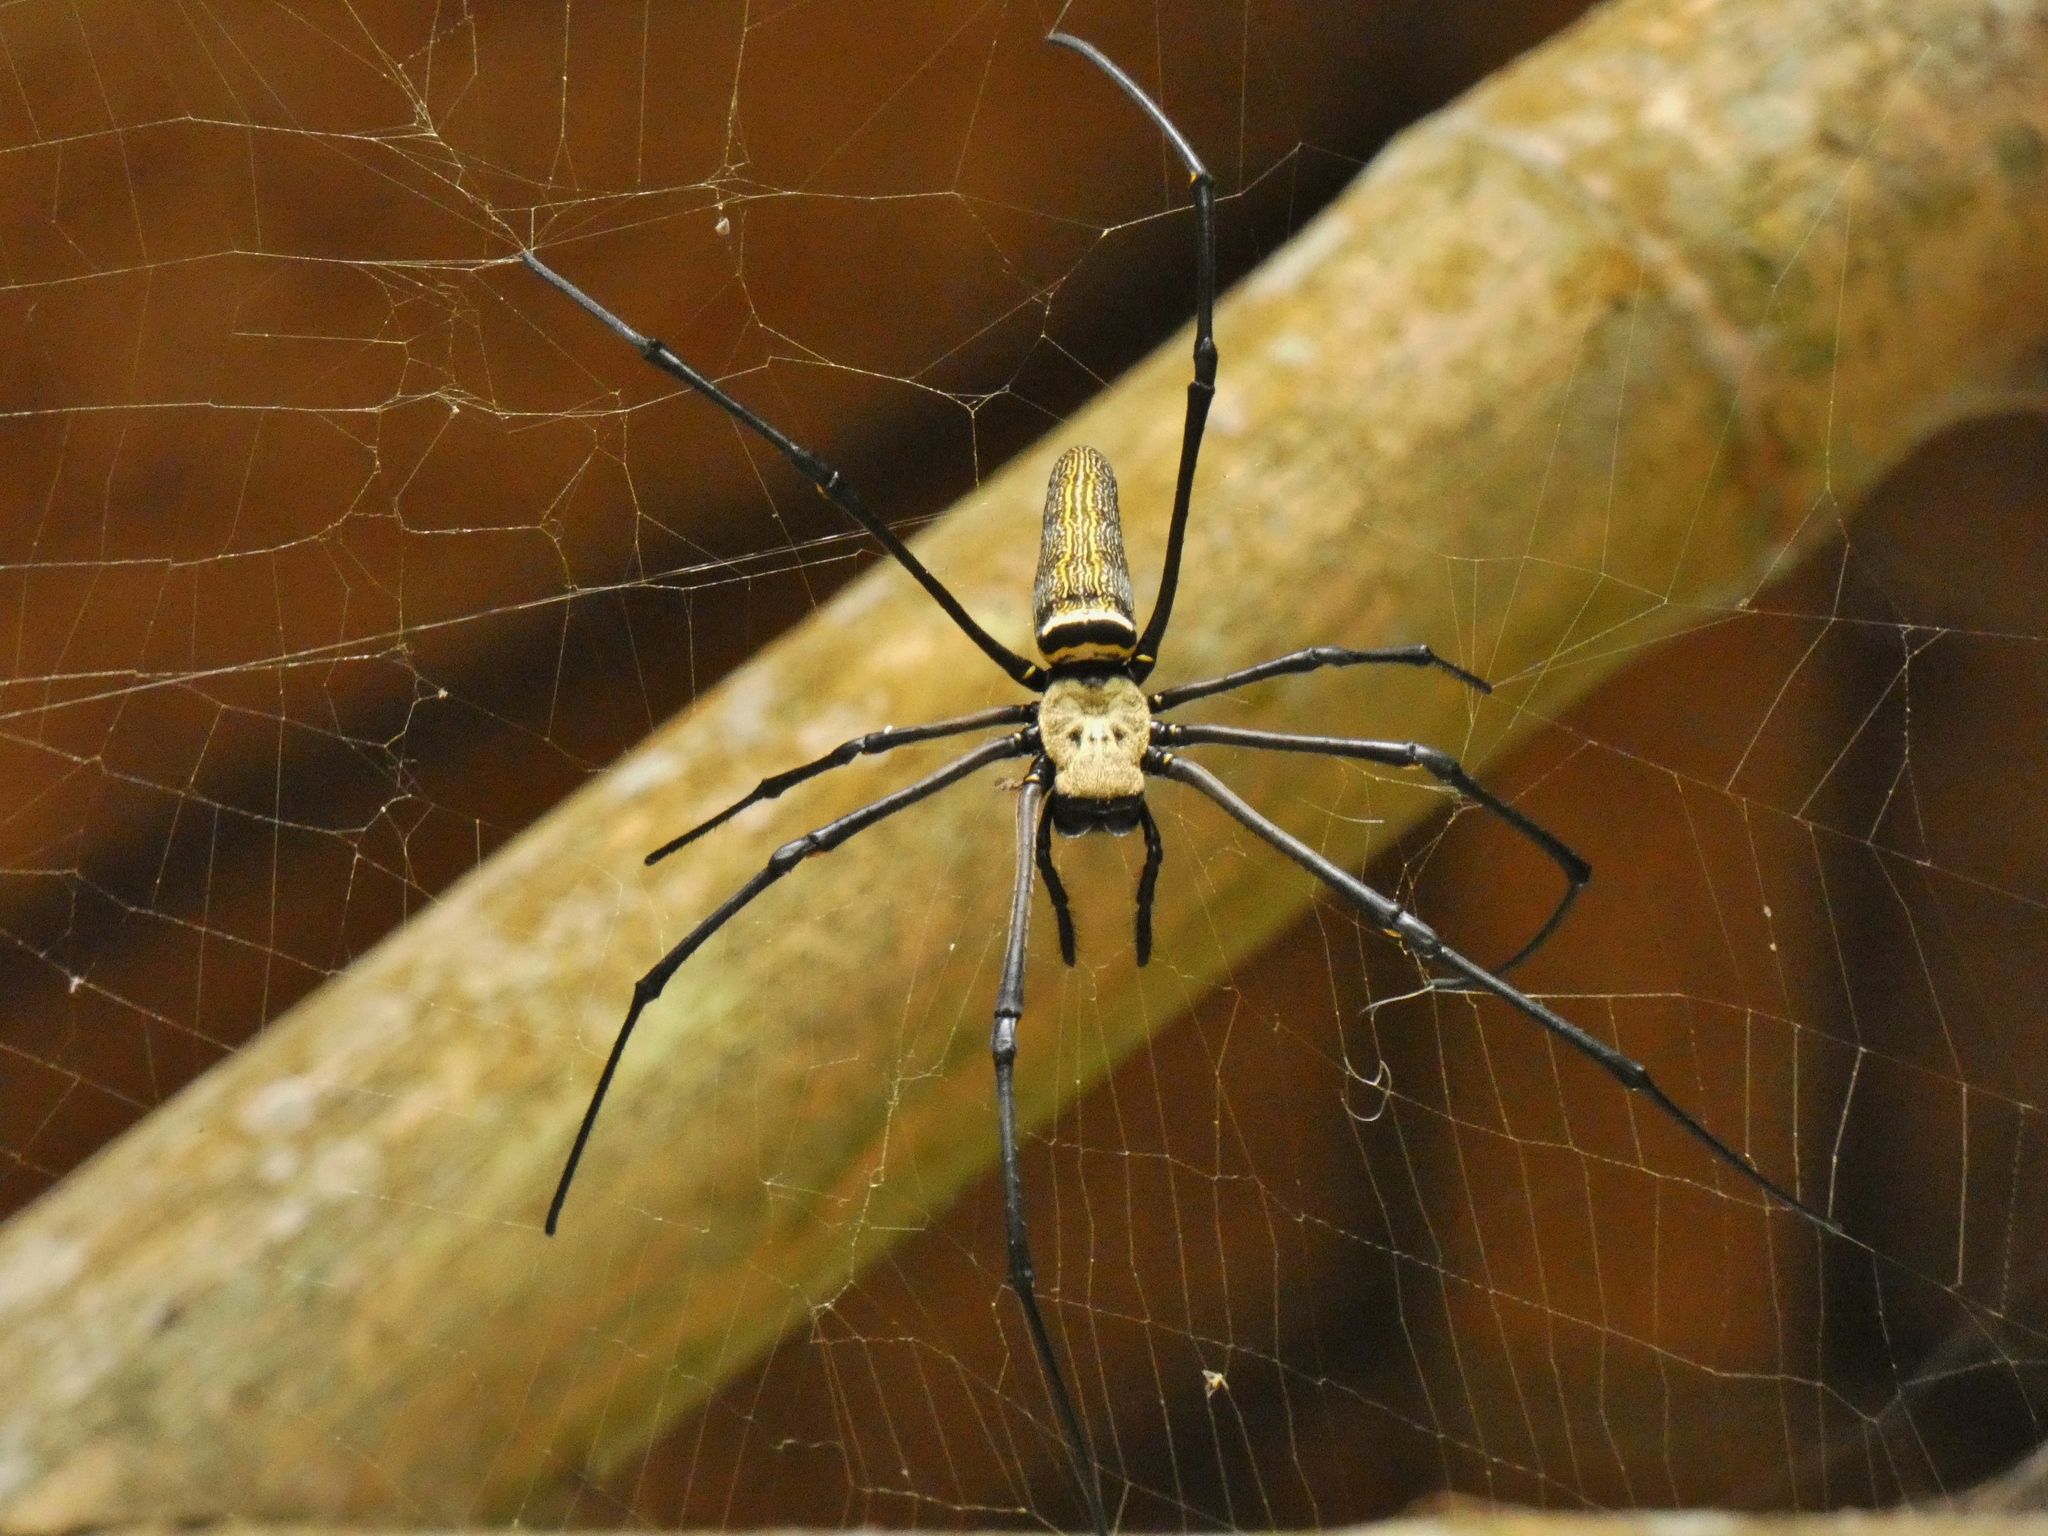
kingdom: Animalia
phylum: Arthropoda
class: Arachnida
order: Araneae
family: Araneidae
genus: Nephila
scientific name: Nephila pilipes
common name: Giant golden orb weaver
